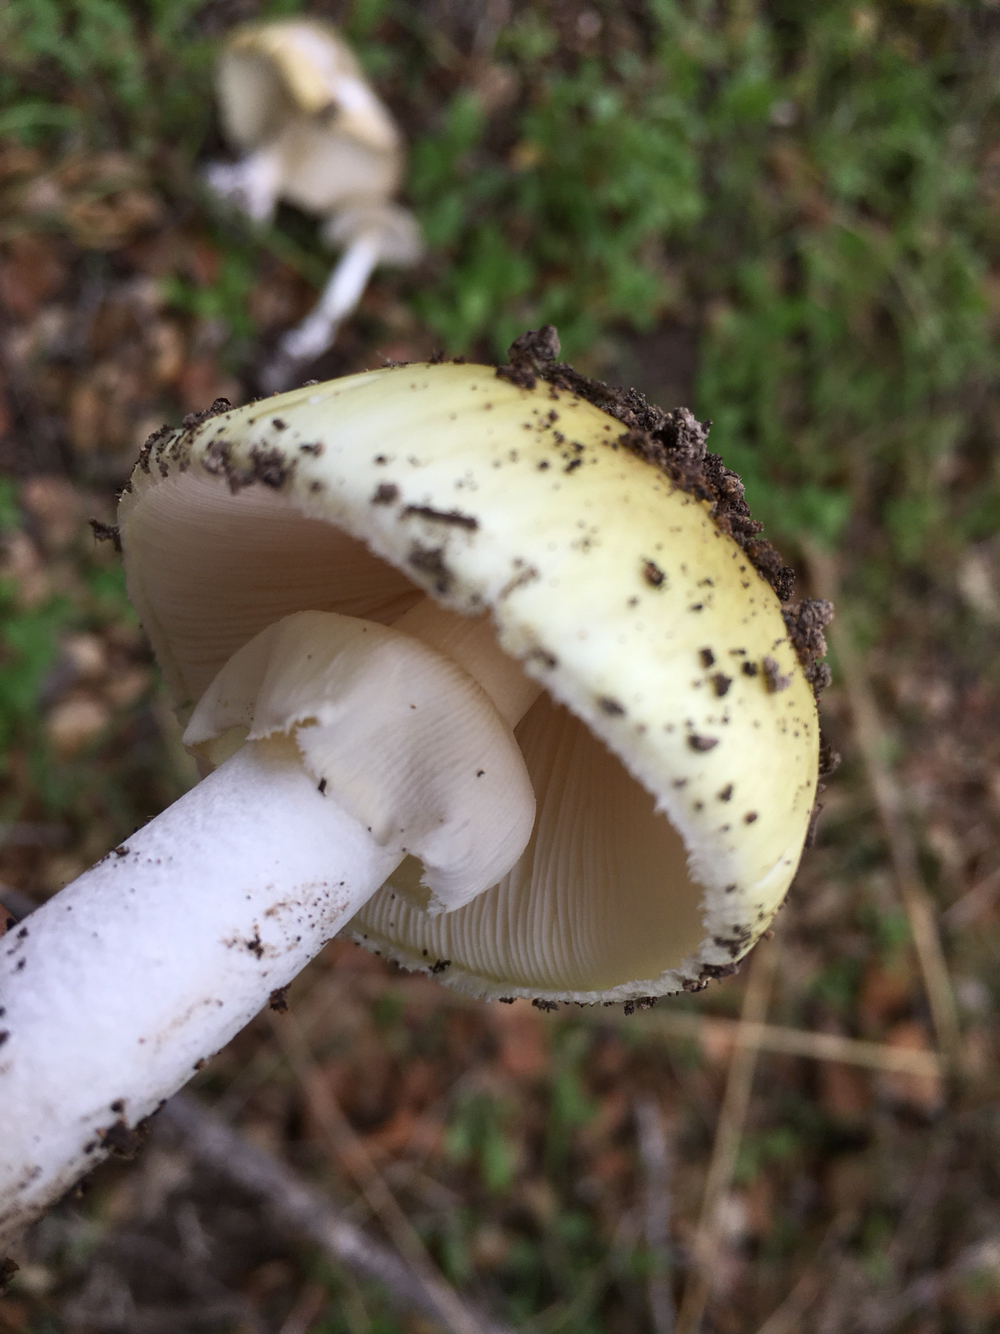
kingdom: Fungi
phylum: Basidiomycota
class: Agaricomycetes
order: Agaricales
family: Amanitaceae
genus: Amanita
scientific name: Amanita phalloides
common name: Death cap
